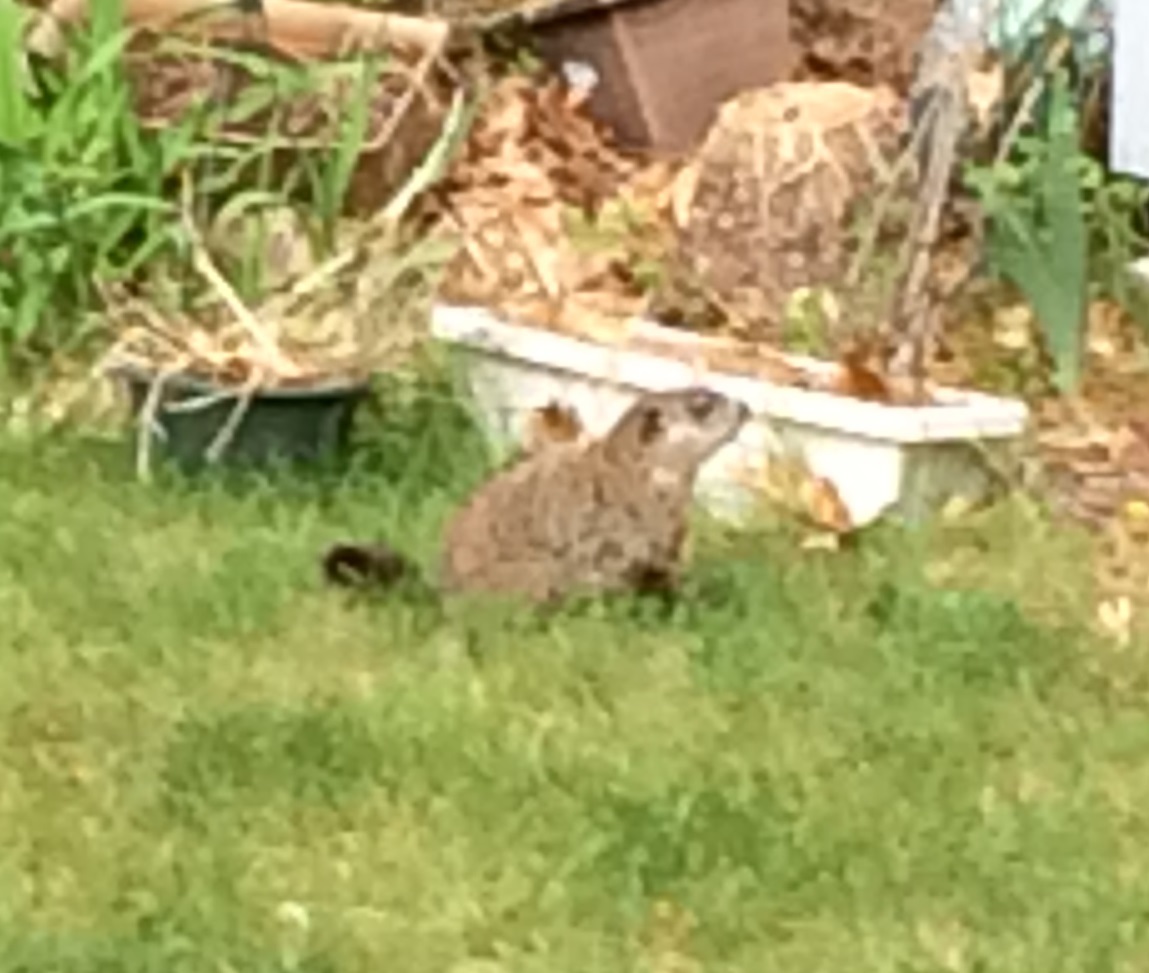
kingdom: Animalia
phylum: Chordata
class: Mammalia
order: Rodentia
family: Sciuridae
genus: Marmota
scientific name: Marmota monax
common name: Groundhog
